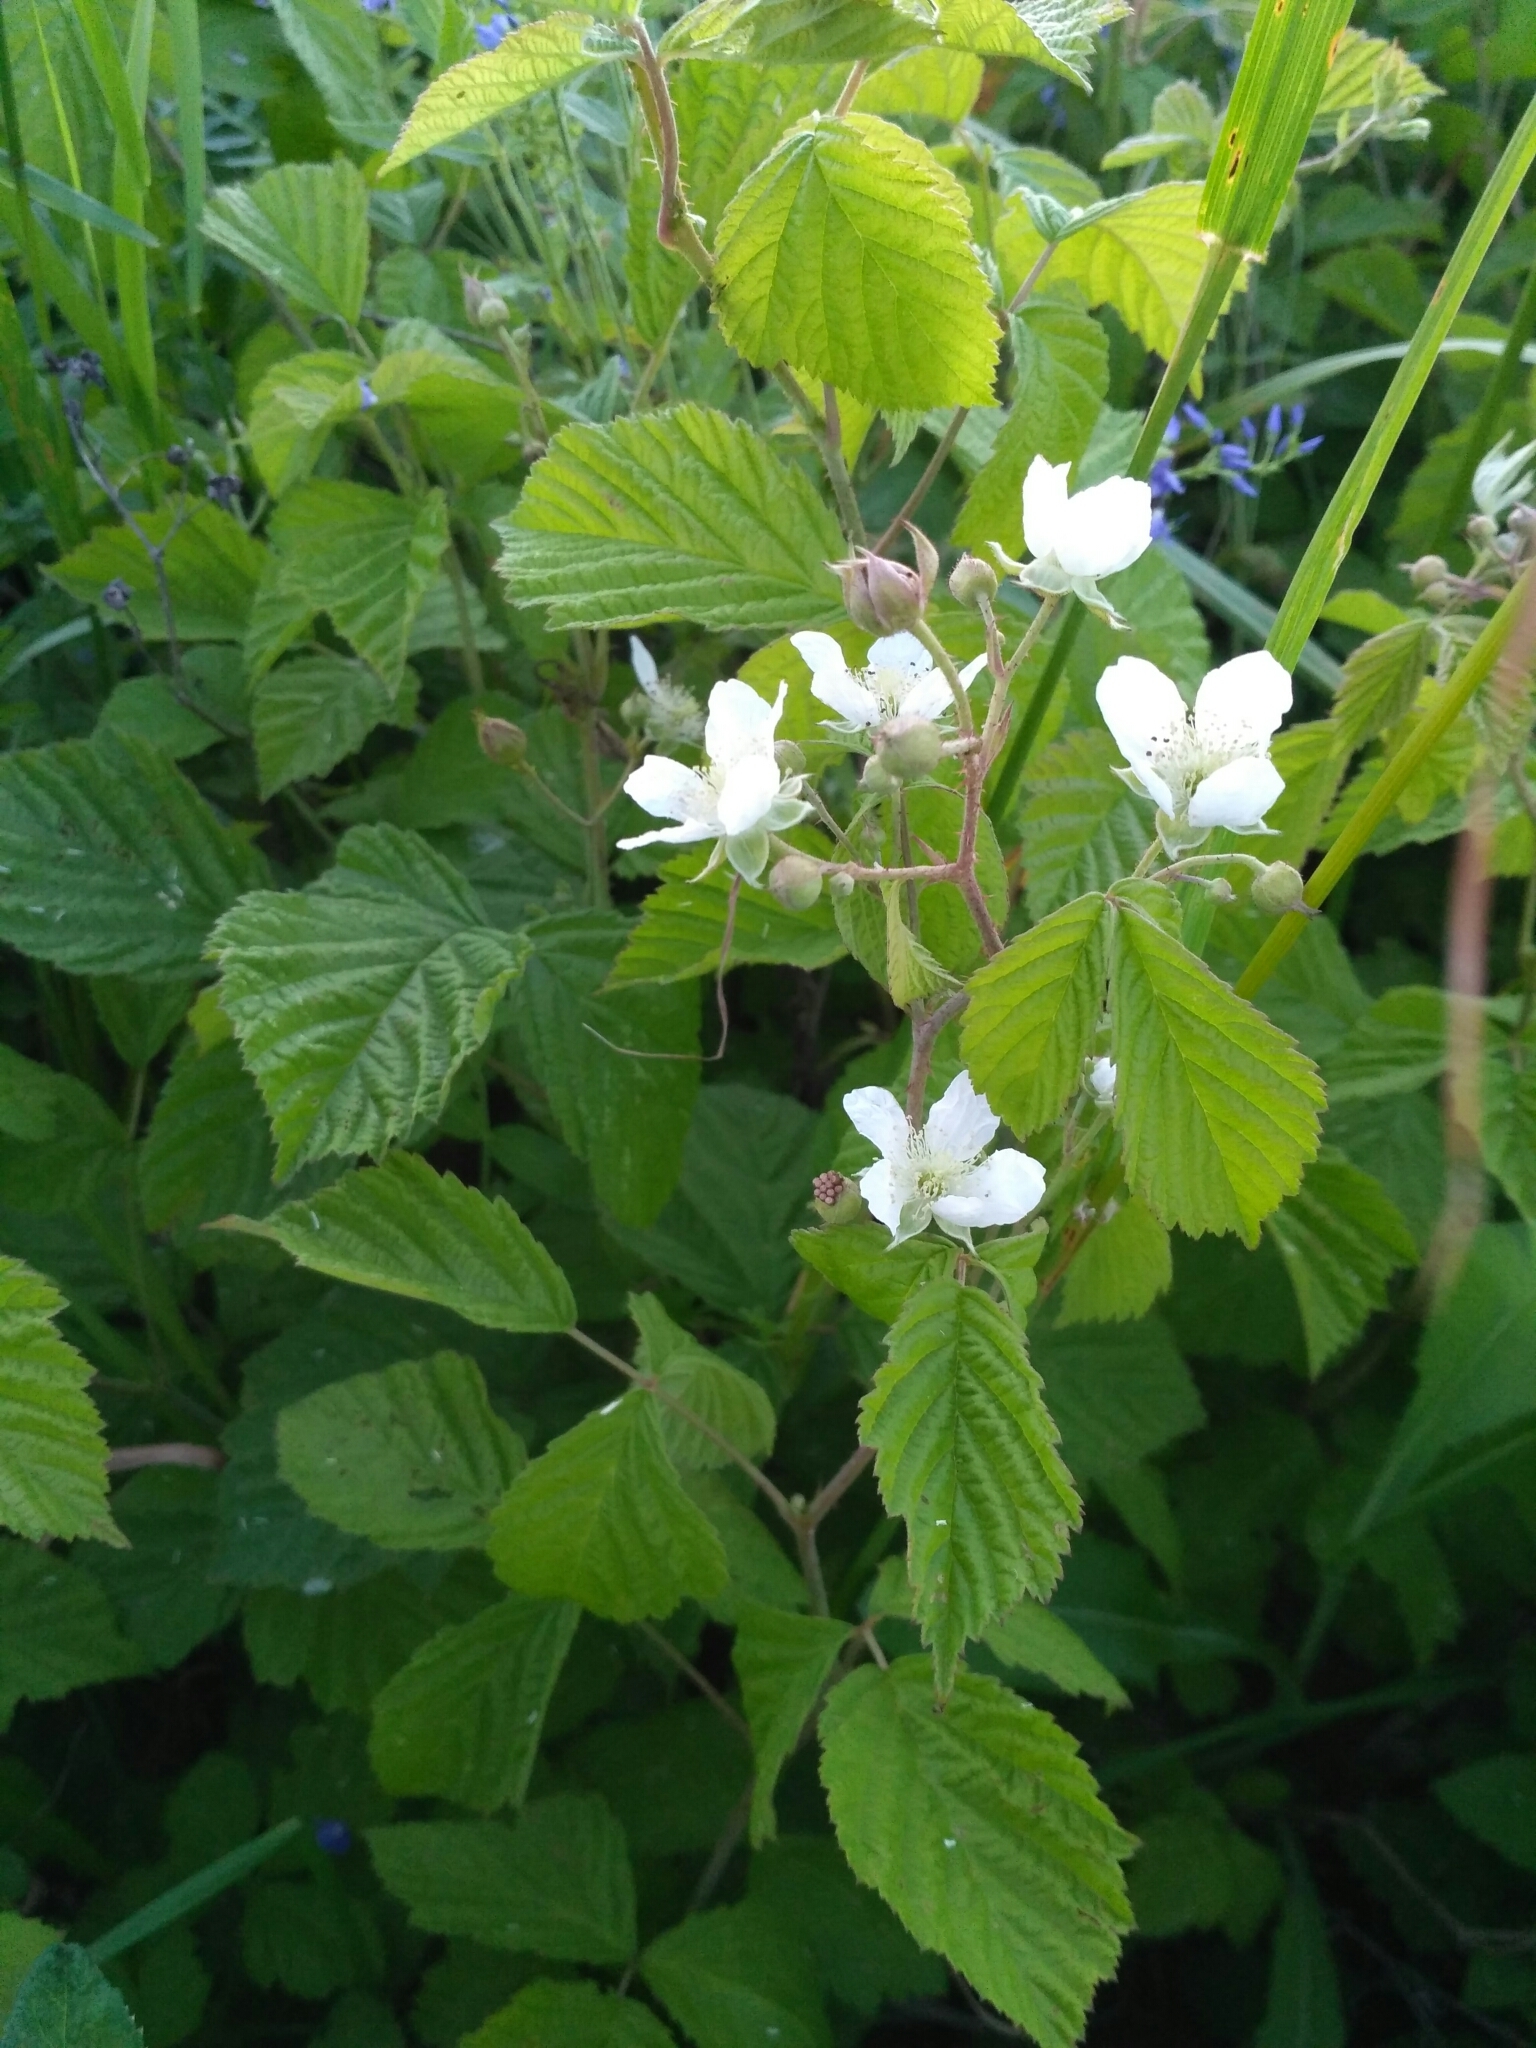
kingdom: Plantae
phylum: Tracheophyta
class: Magnoliopsida
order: Rosales
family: Rosaceae
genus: Rubus
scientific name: Rubus caesius
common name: Dewberry
